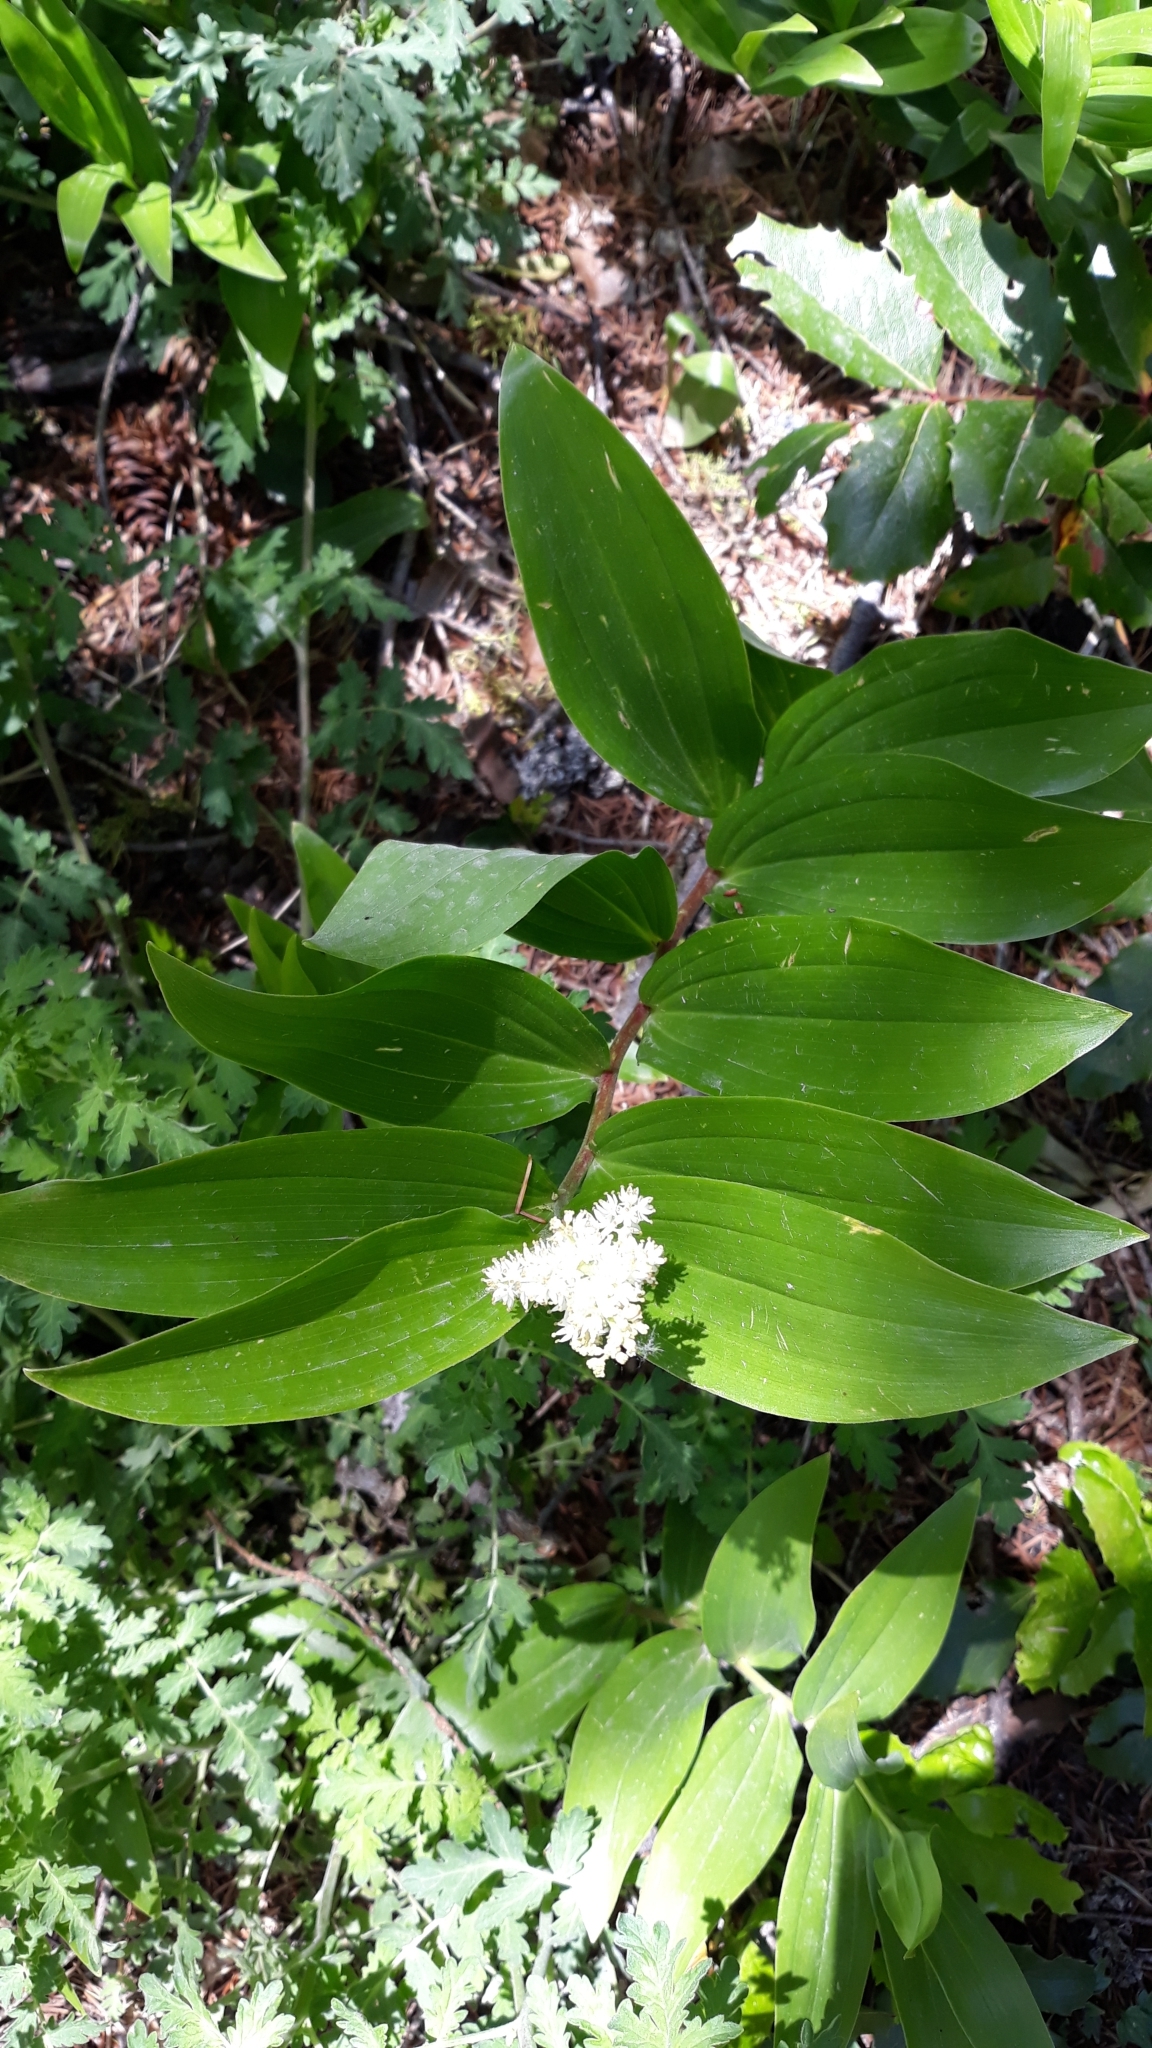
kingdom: Plantae
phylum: Tracheophyta
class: Liliopsida
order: Asparagales
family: Asparagaceae
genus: Maianthemum
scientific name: Maianthemum racemosum
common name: False spikenard
